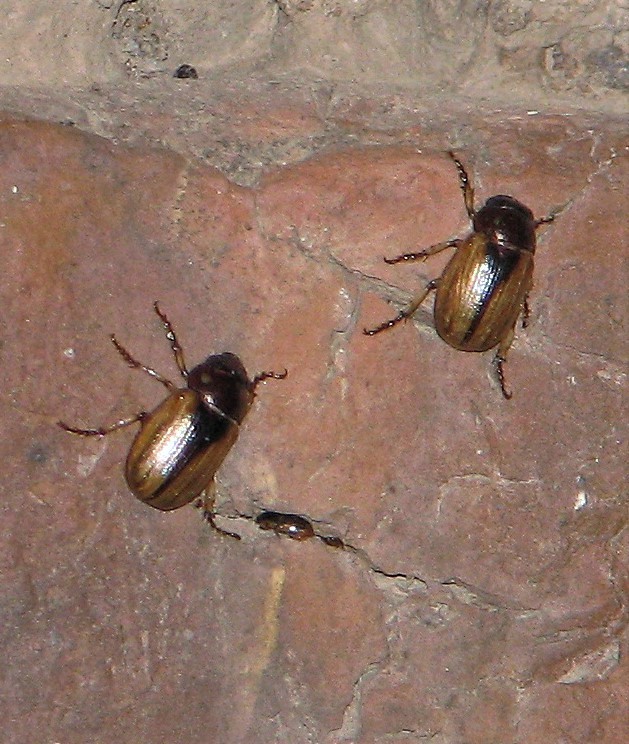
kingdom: Animalia
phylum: Arthropoda
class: Insecta
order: Coleoptera
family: Scarabaeidae
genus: Leucothyreus
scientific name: Leucothyreus marginaticollis
